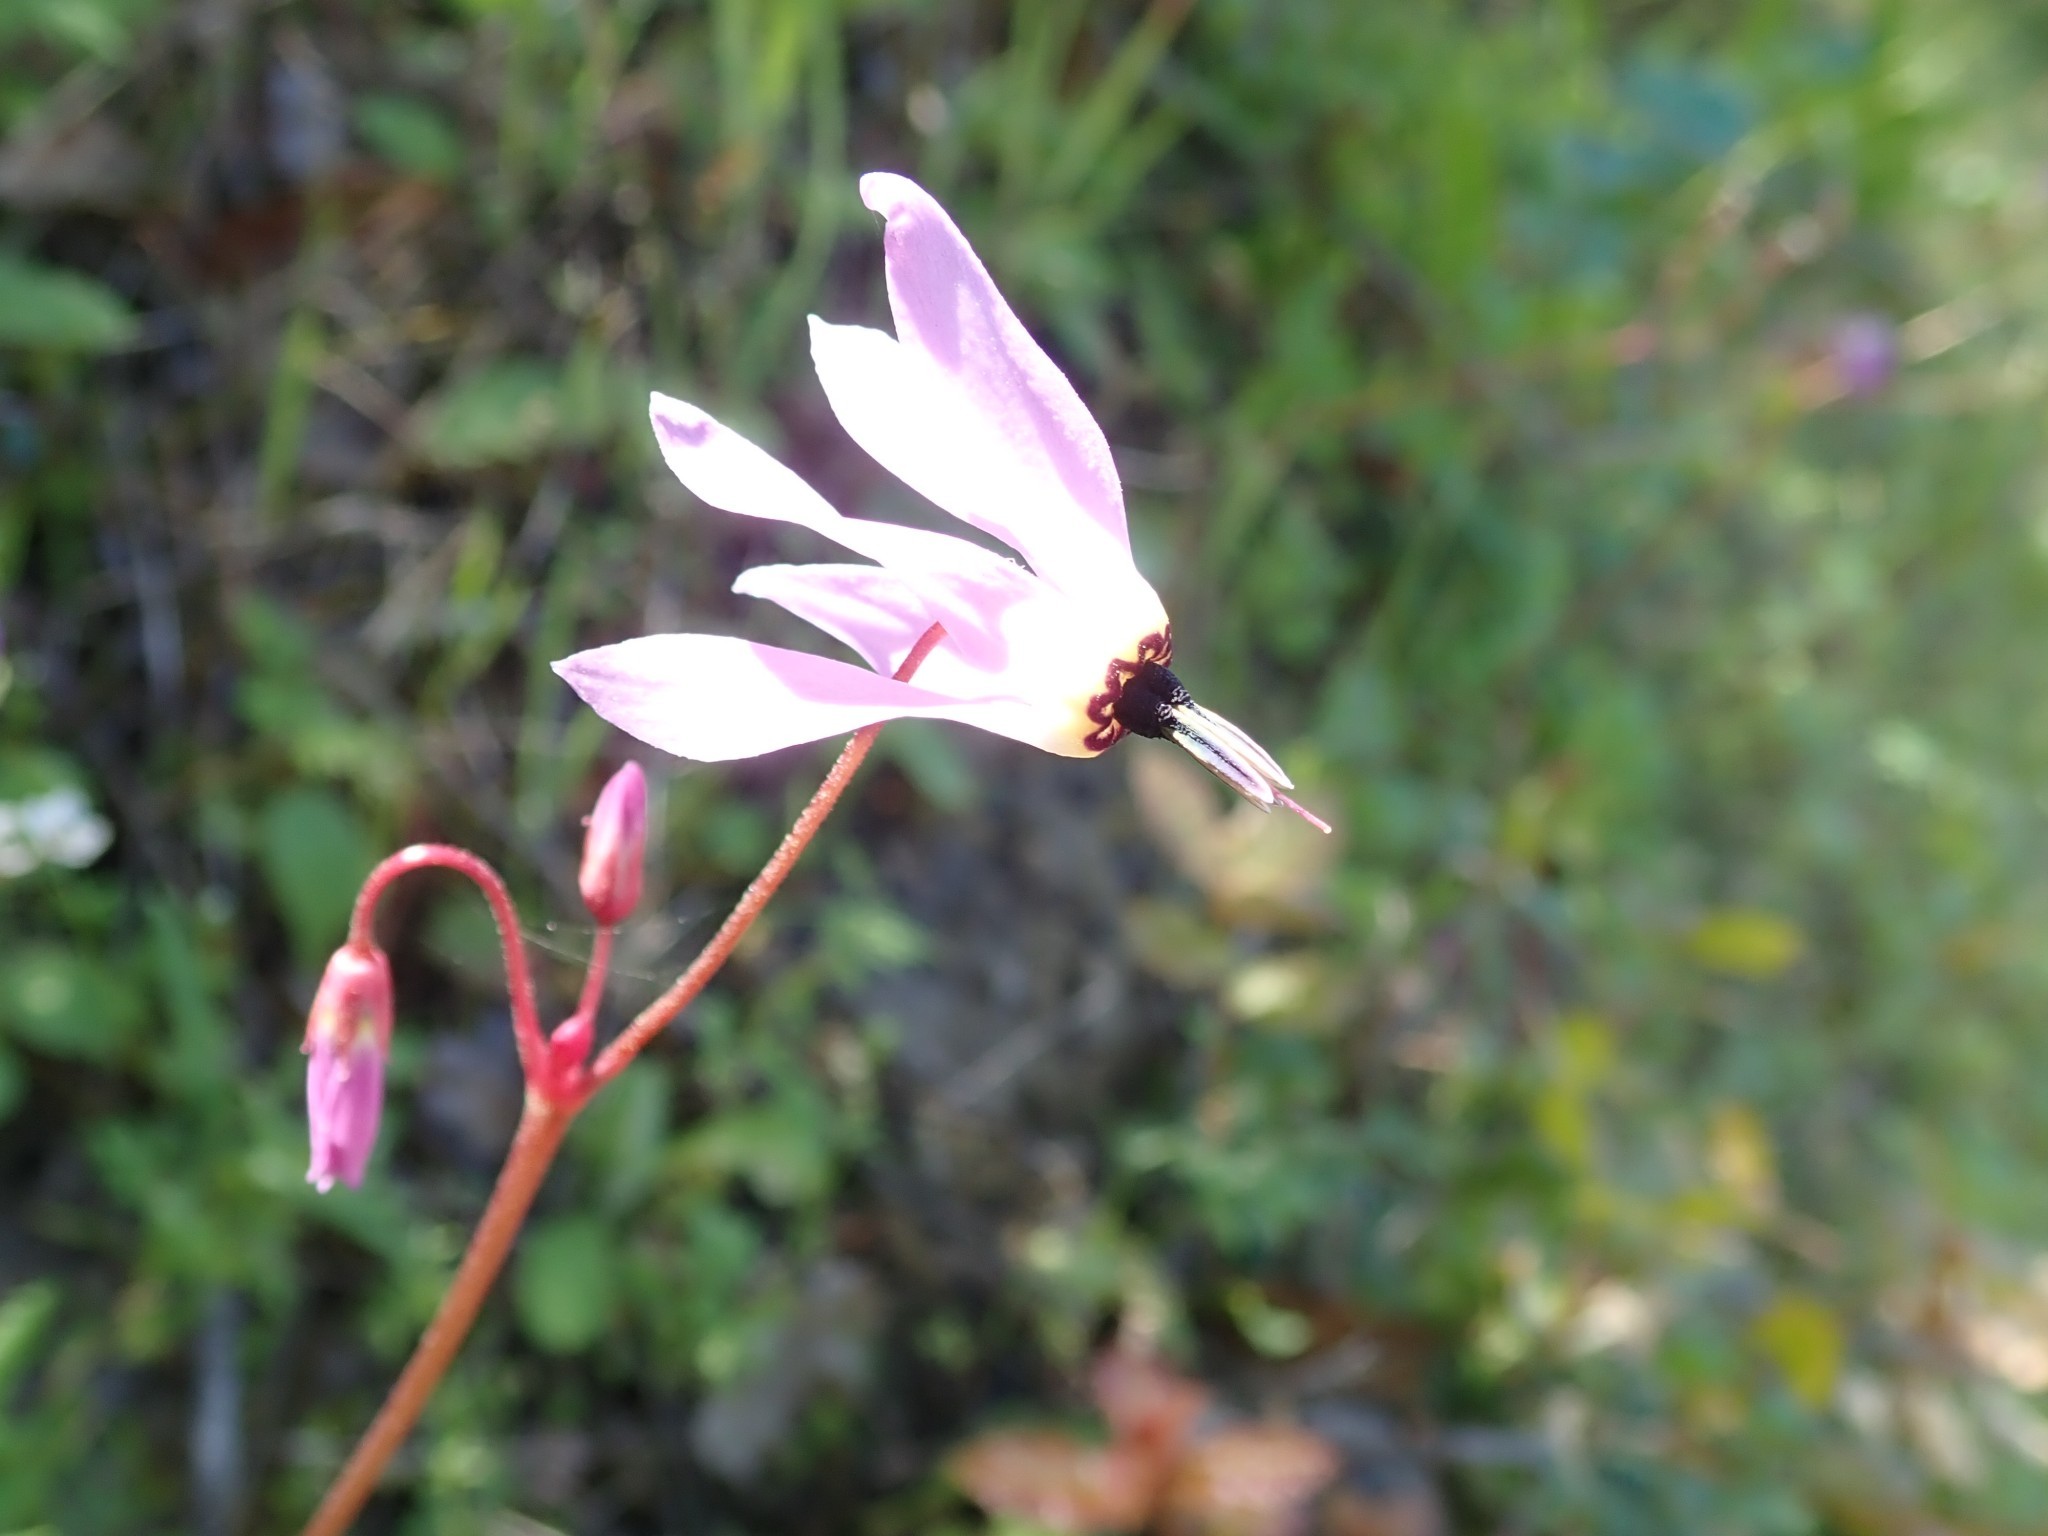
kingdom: Plantae
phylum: Tracheophyta
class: Magnoliopsida
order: Ericales
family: Primulaceae
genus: Dodecatheon
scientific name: Dodecatheon hendersonii
